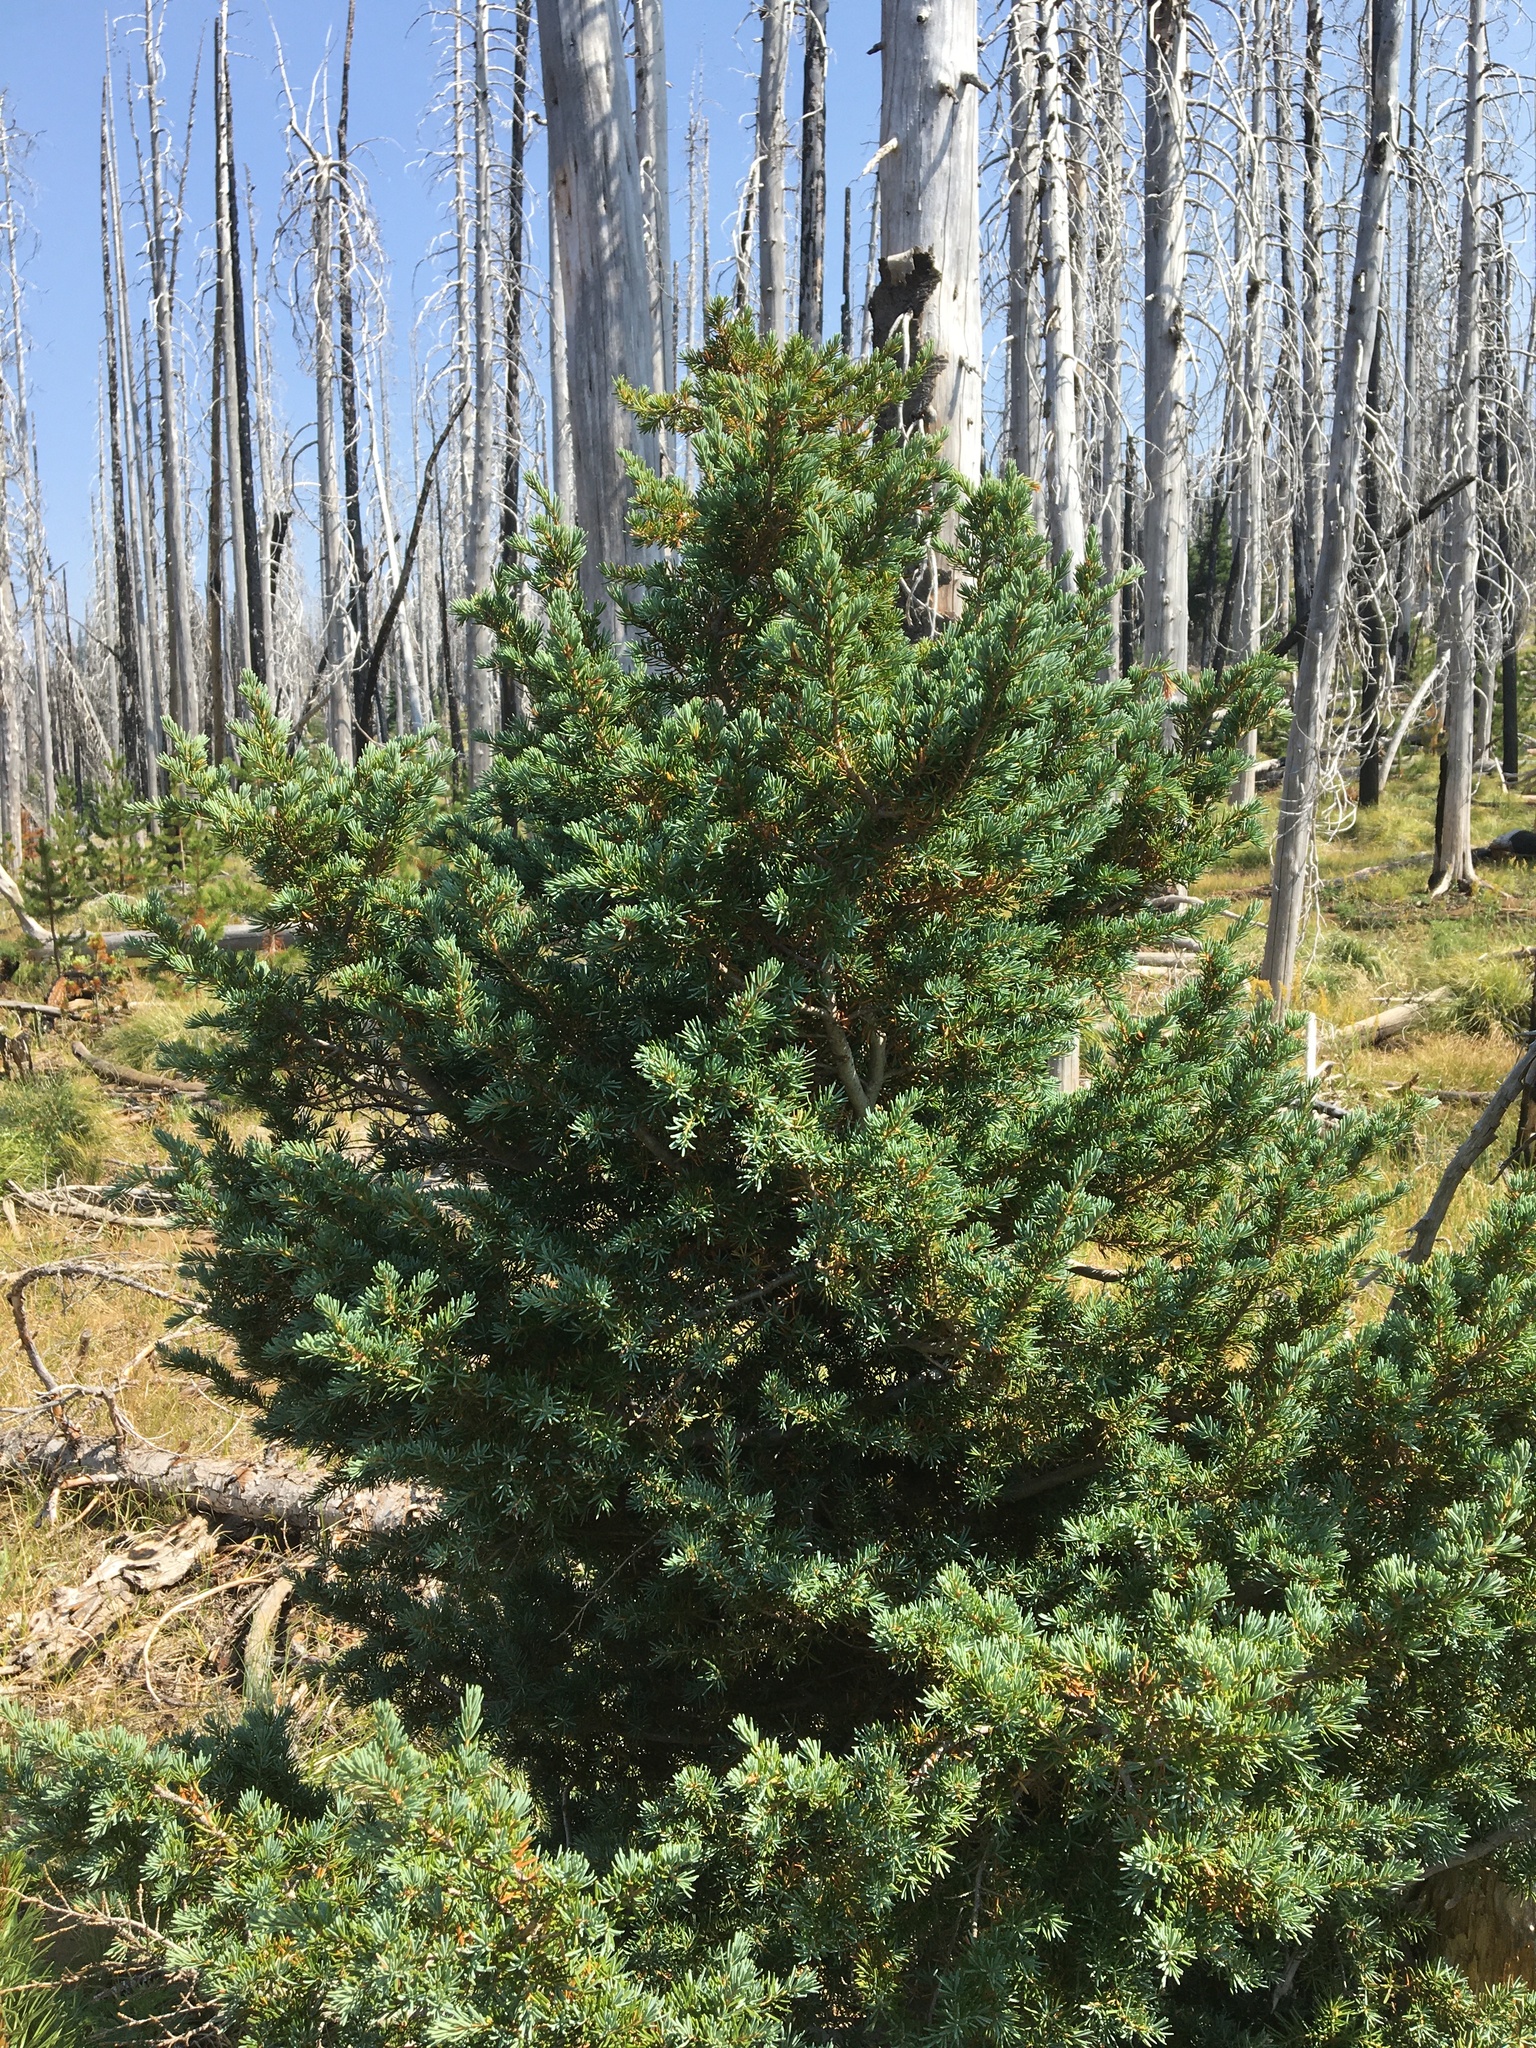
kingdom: Plantae
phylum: Tracheophyta
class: Pinopsida
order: Pinales
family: Pinaceae
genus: Tsuga
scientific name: Tsuga mertensiana
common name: Mountain hemlock
